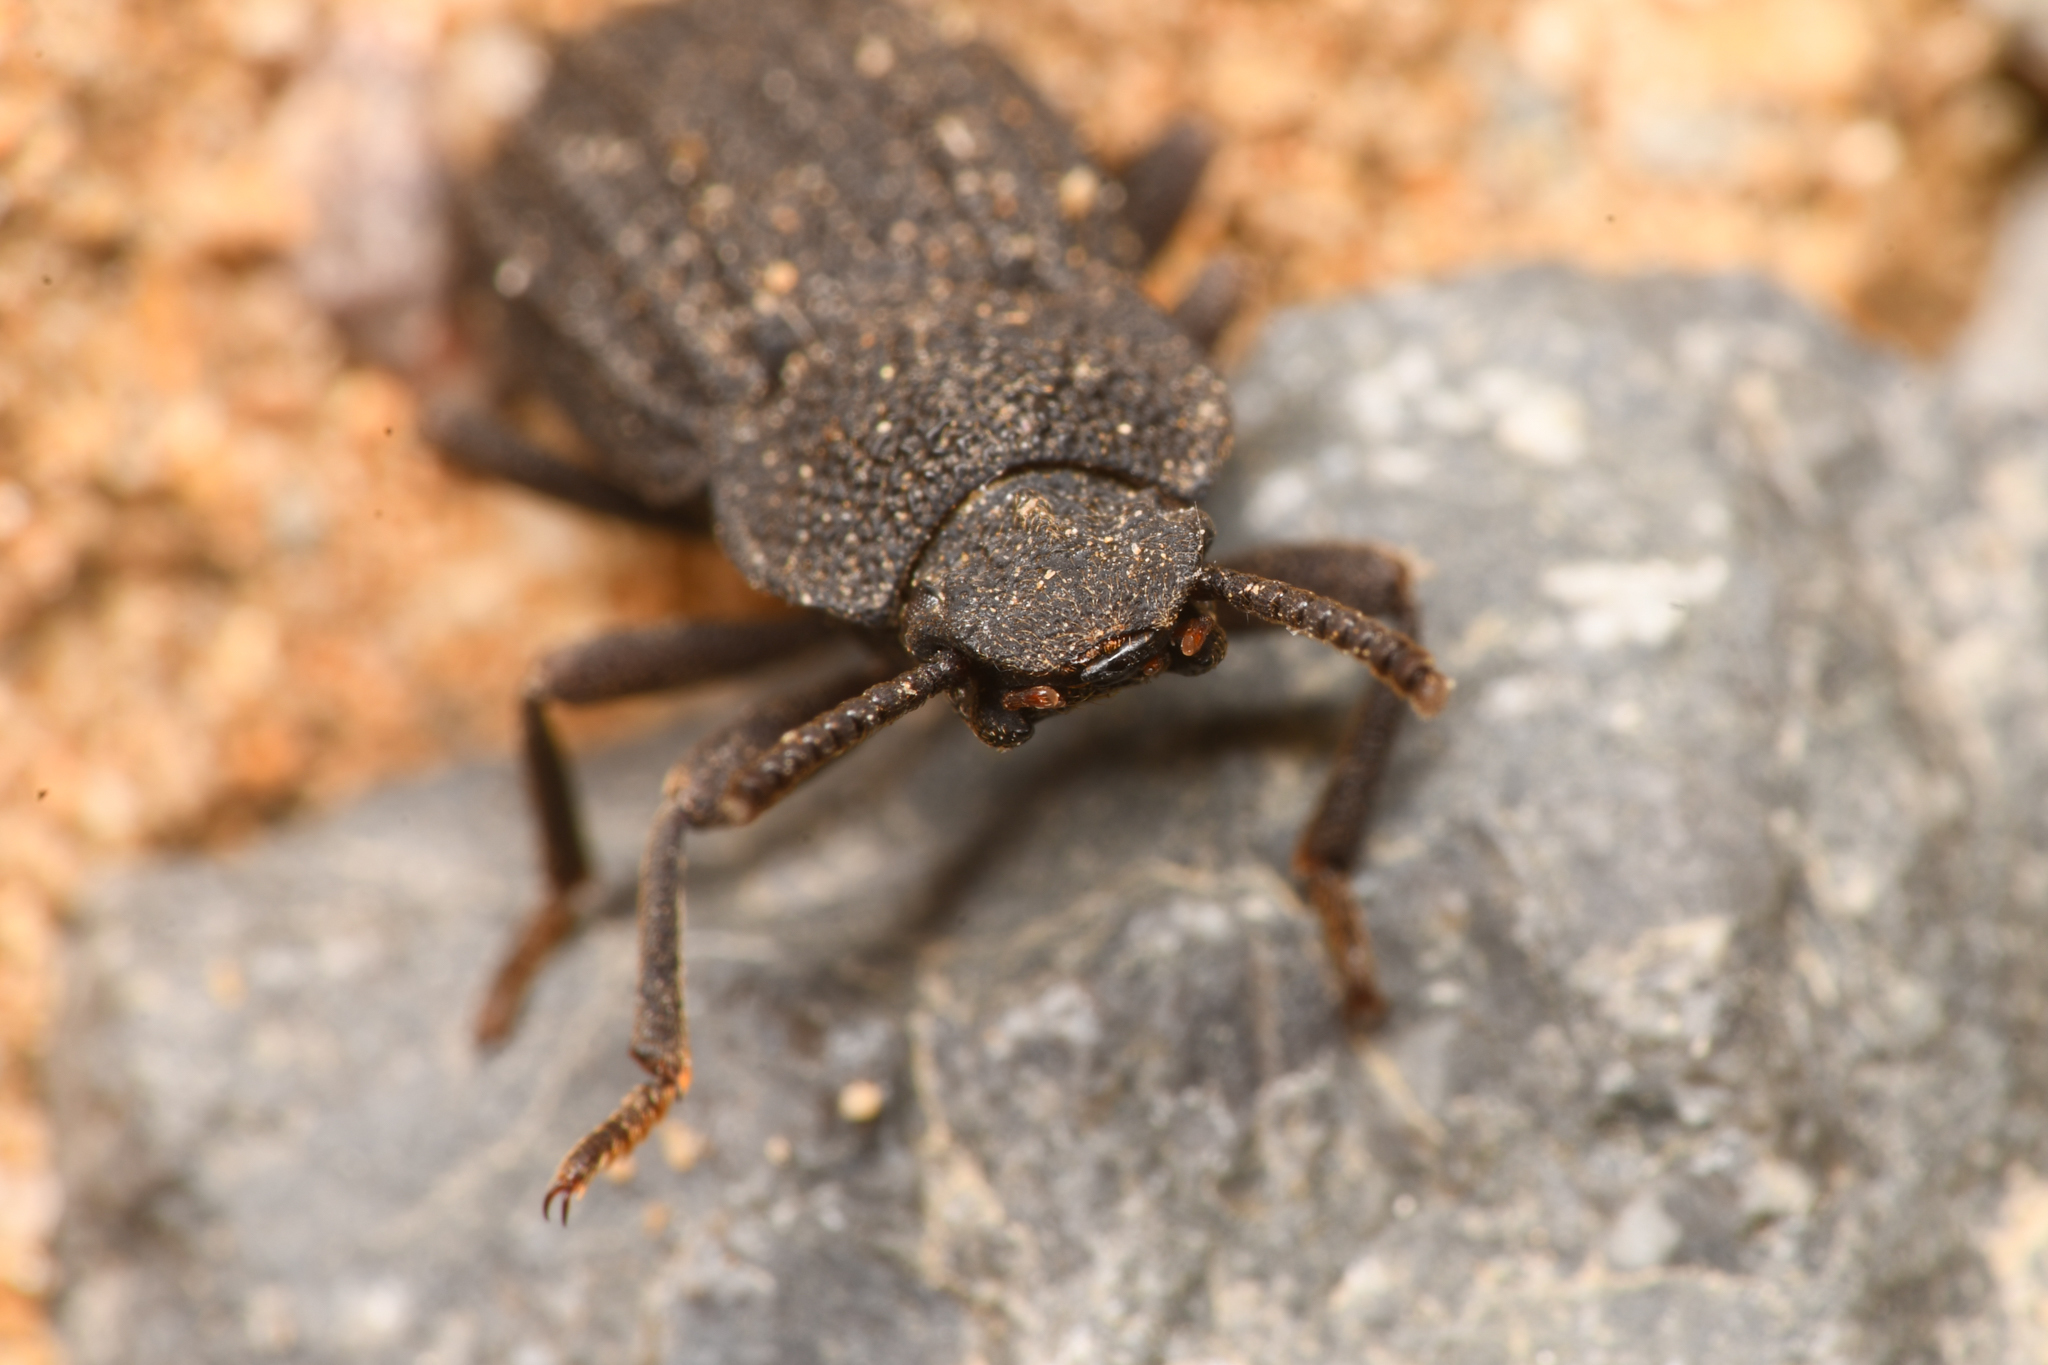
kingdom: Animalia
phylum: Arthropoda
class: Insecta
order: Coleoptera
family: Tenebrionidae
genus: Nyctoporis
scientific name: Nyctoporis carinata
